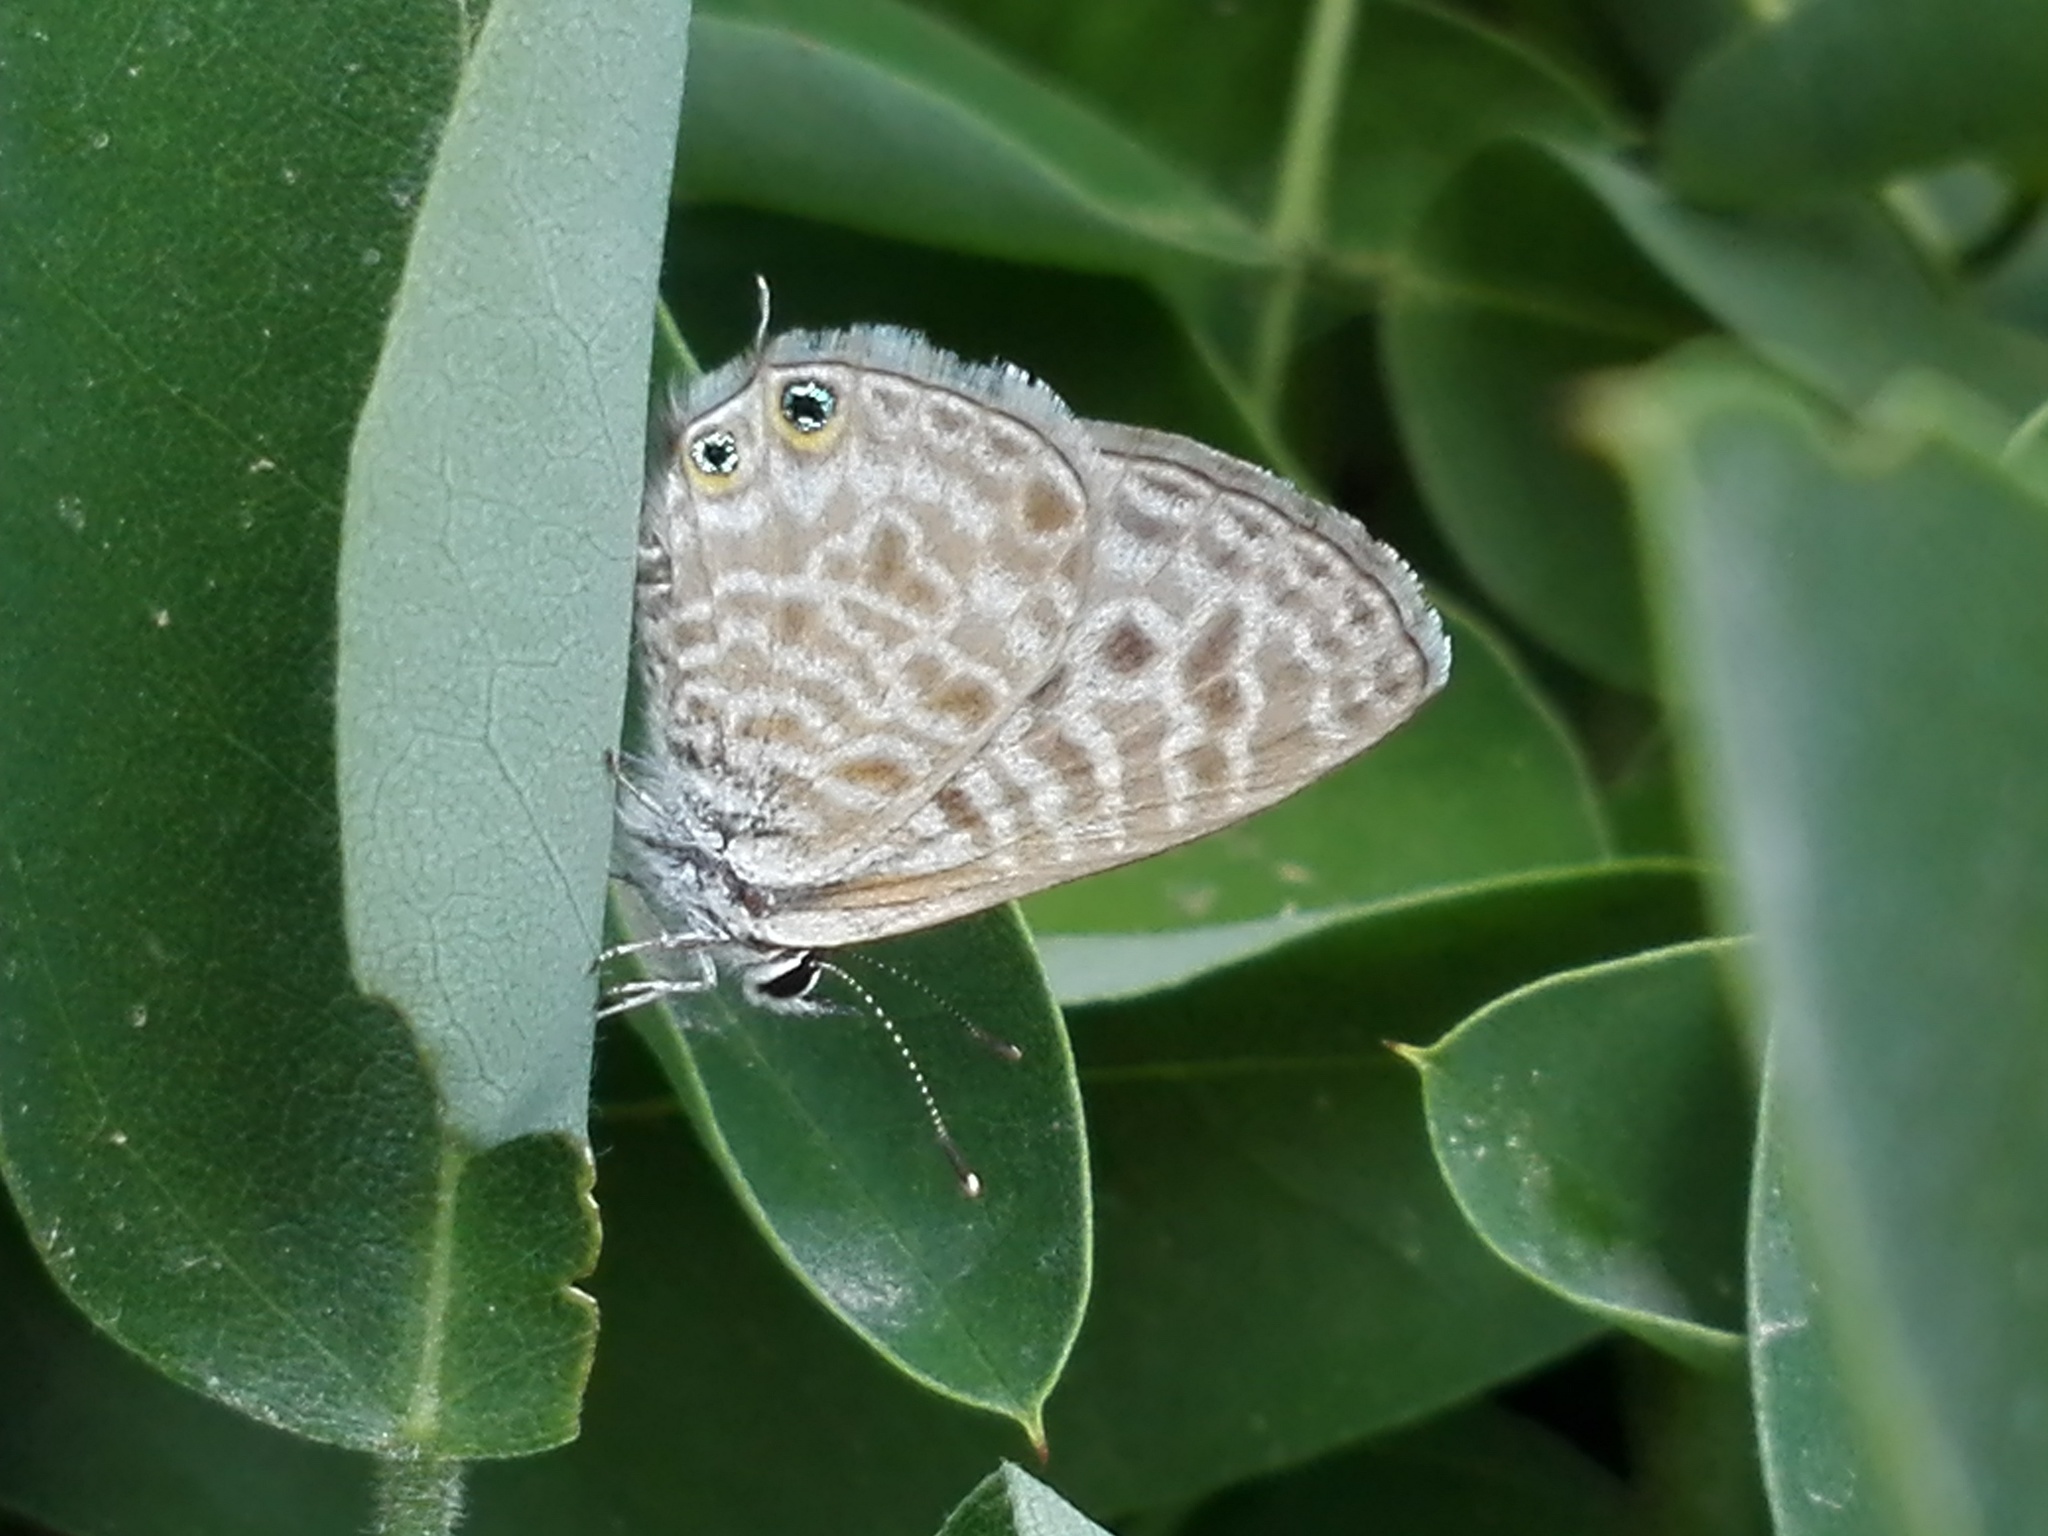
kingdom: Animalia
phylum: Arthropoda
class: Insecta
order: Lepidoptera
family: Lycaenidae
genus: Leptotes
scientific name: Leptotes pirithous
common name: Lang's short-tailed blue
